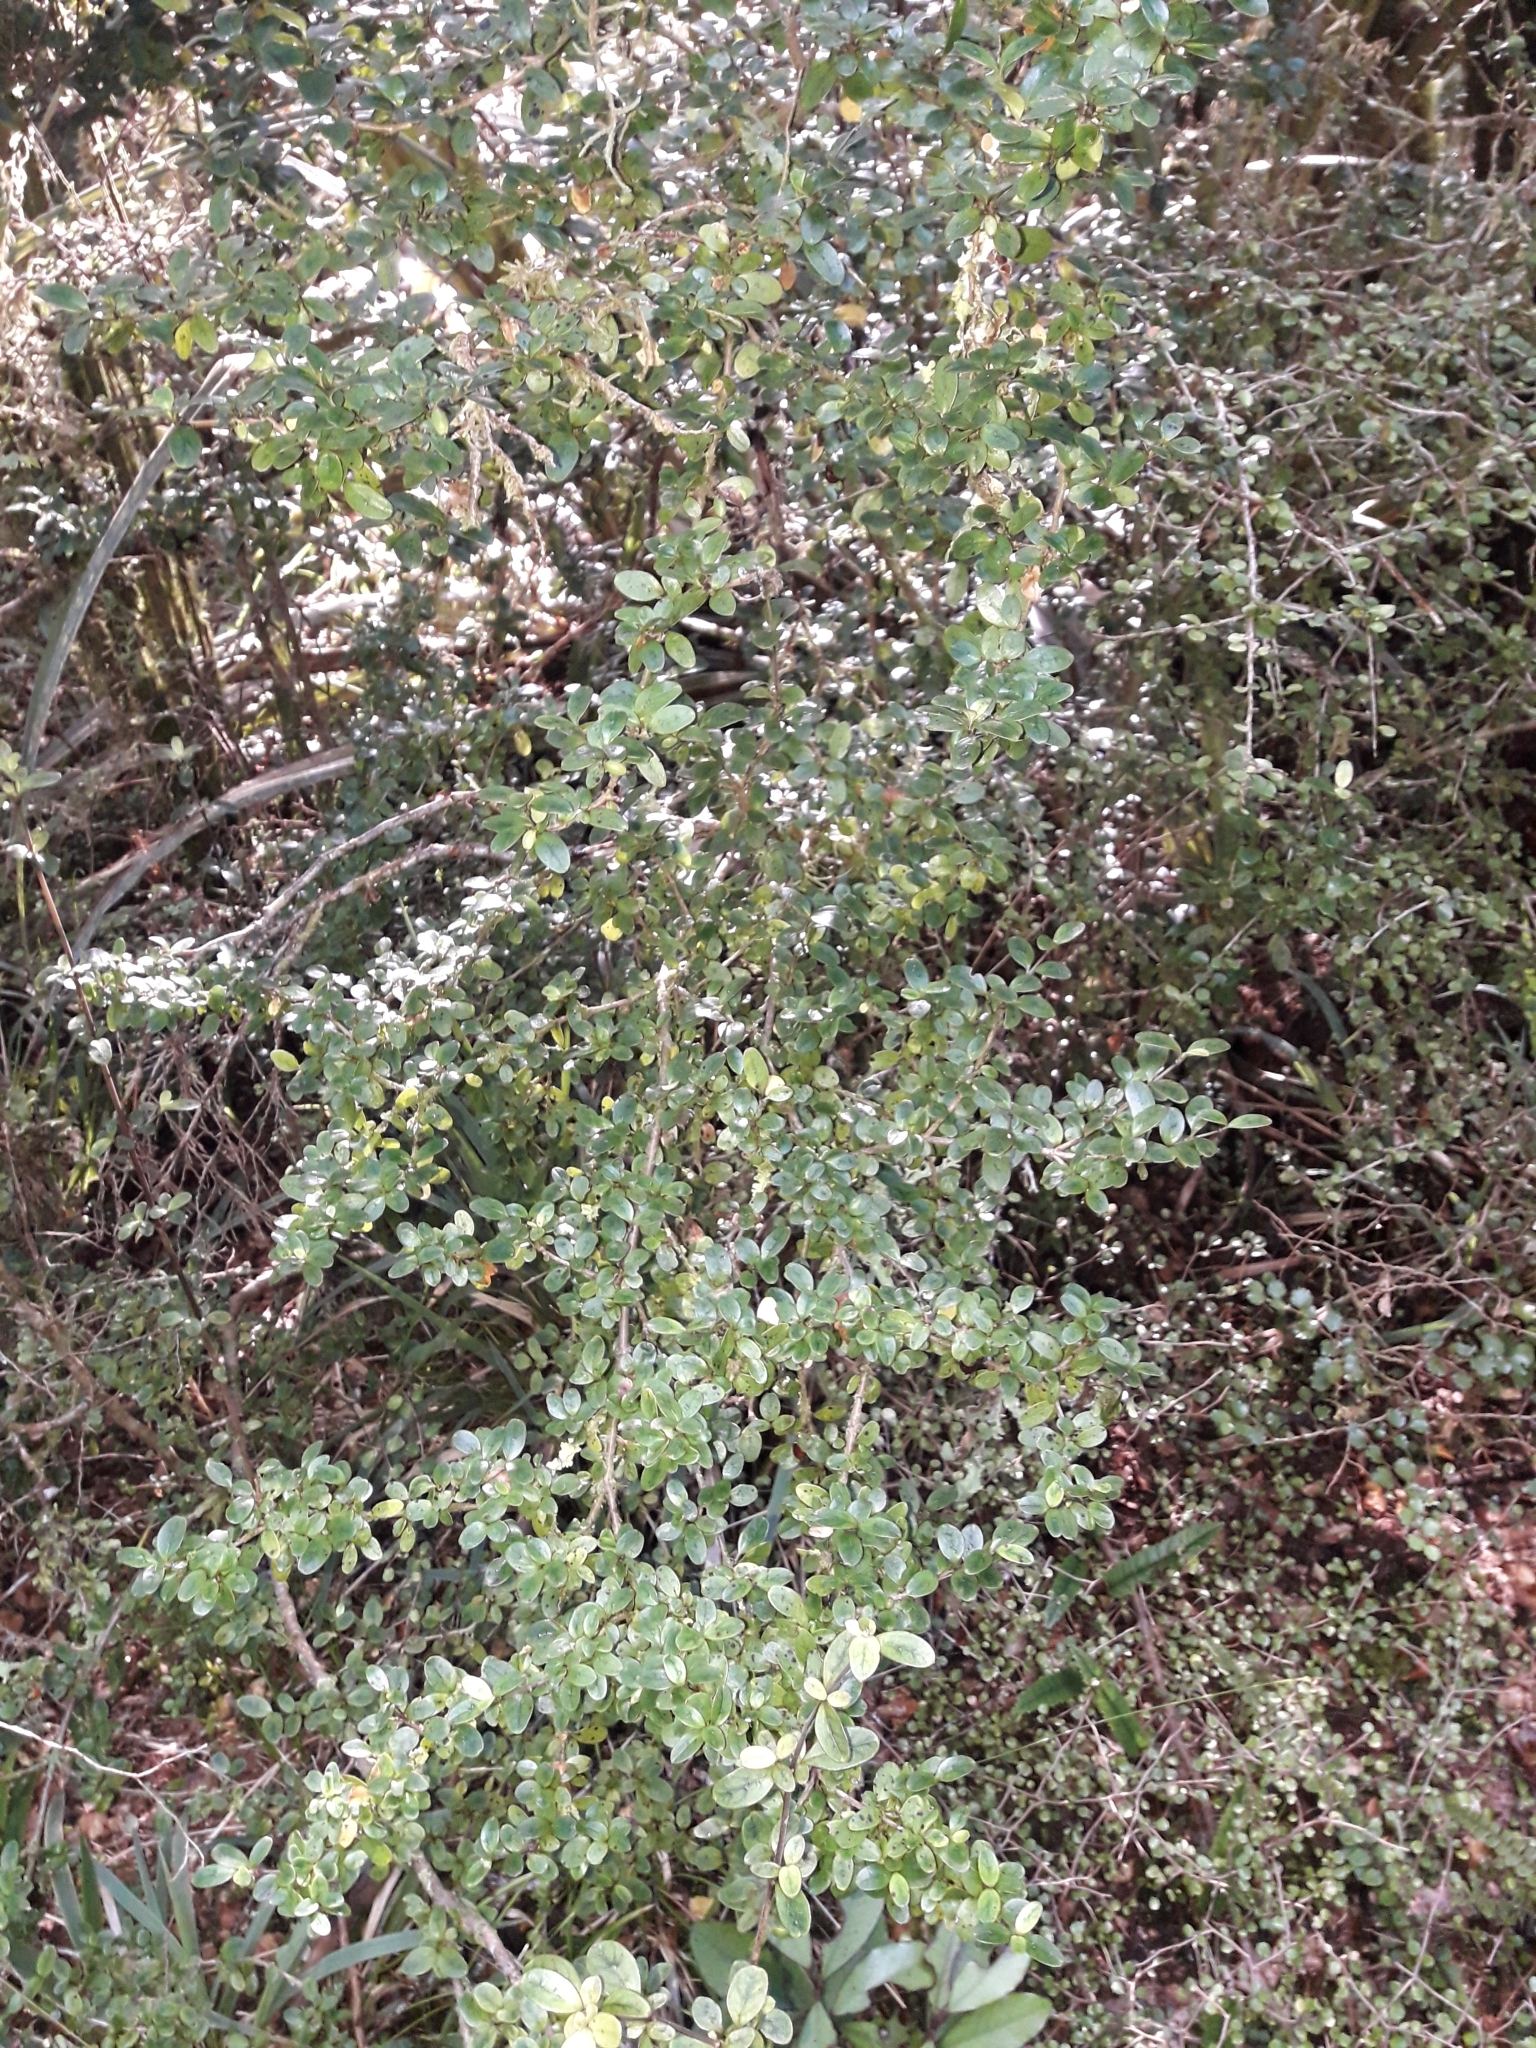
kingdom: Plantae
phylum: Tracheophyta
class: Magnoliopsida
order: Gentianales
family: Rubiaceae
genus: Coprosma
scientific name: Coprosma colensoi
